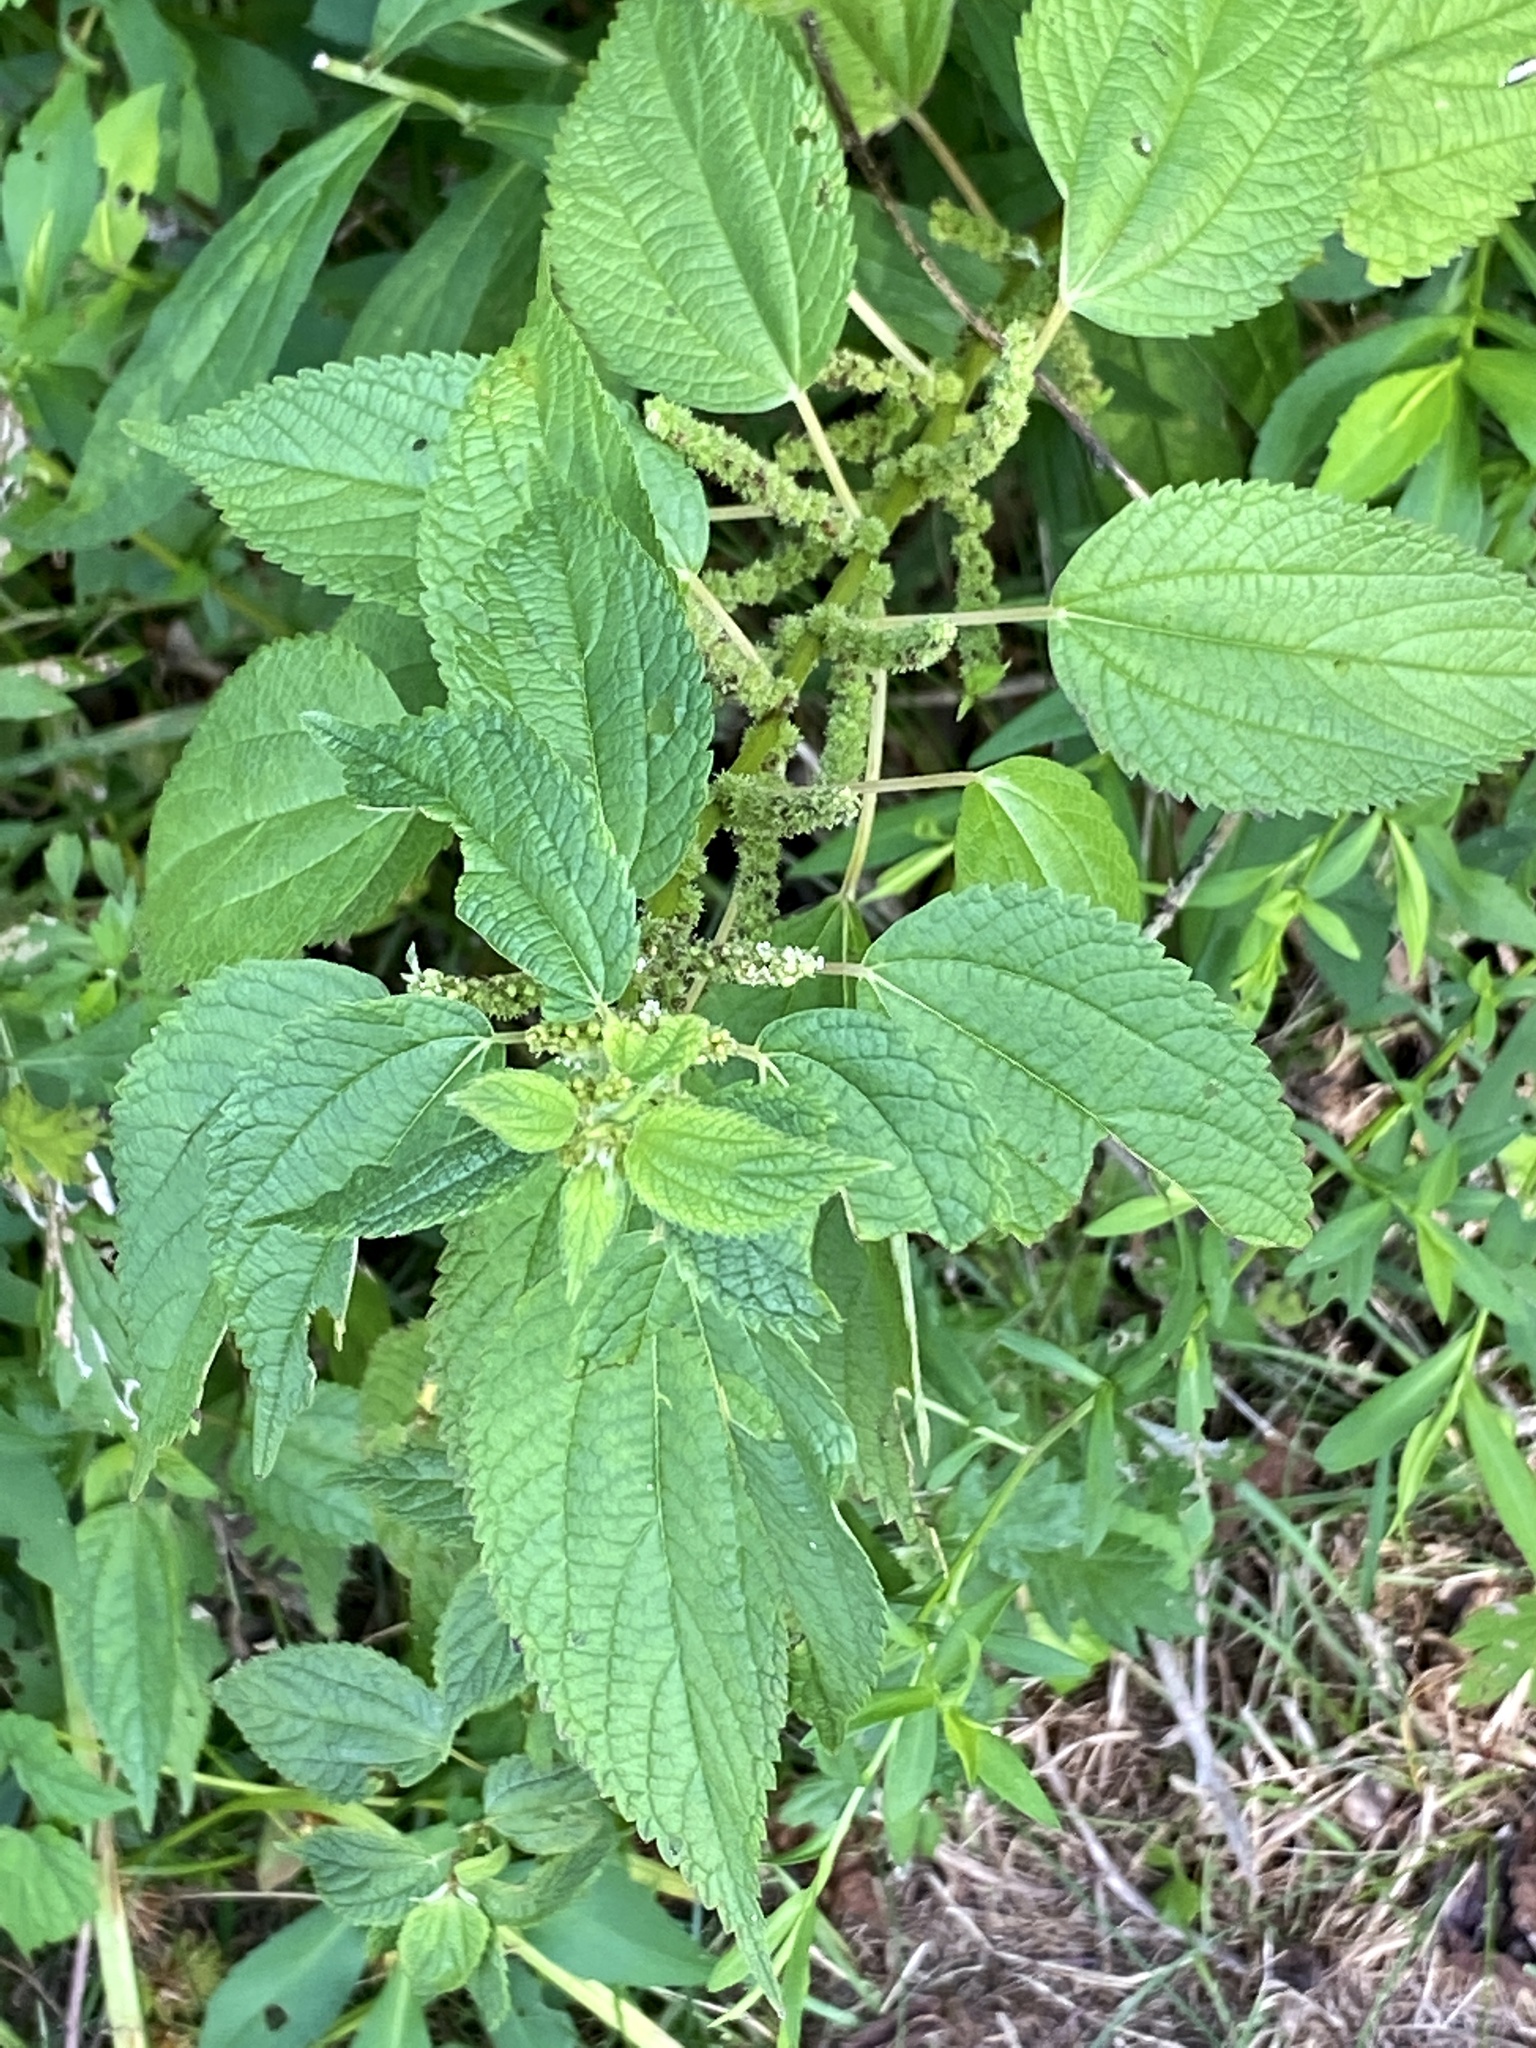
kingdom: Plantae
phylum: Tracheophyta
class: Magnoliopsida
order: Rosales
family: Urticaceae
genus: Boehmeria
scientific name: Boehmeria cylindrica
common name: Bog-hemp
